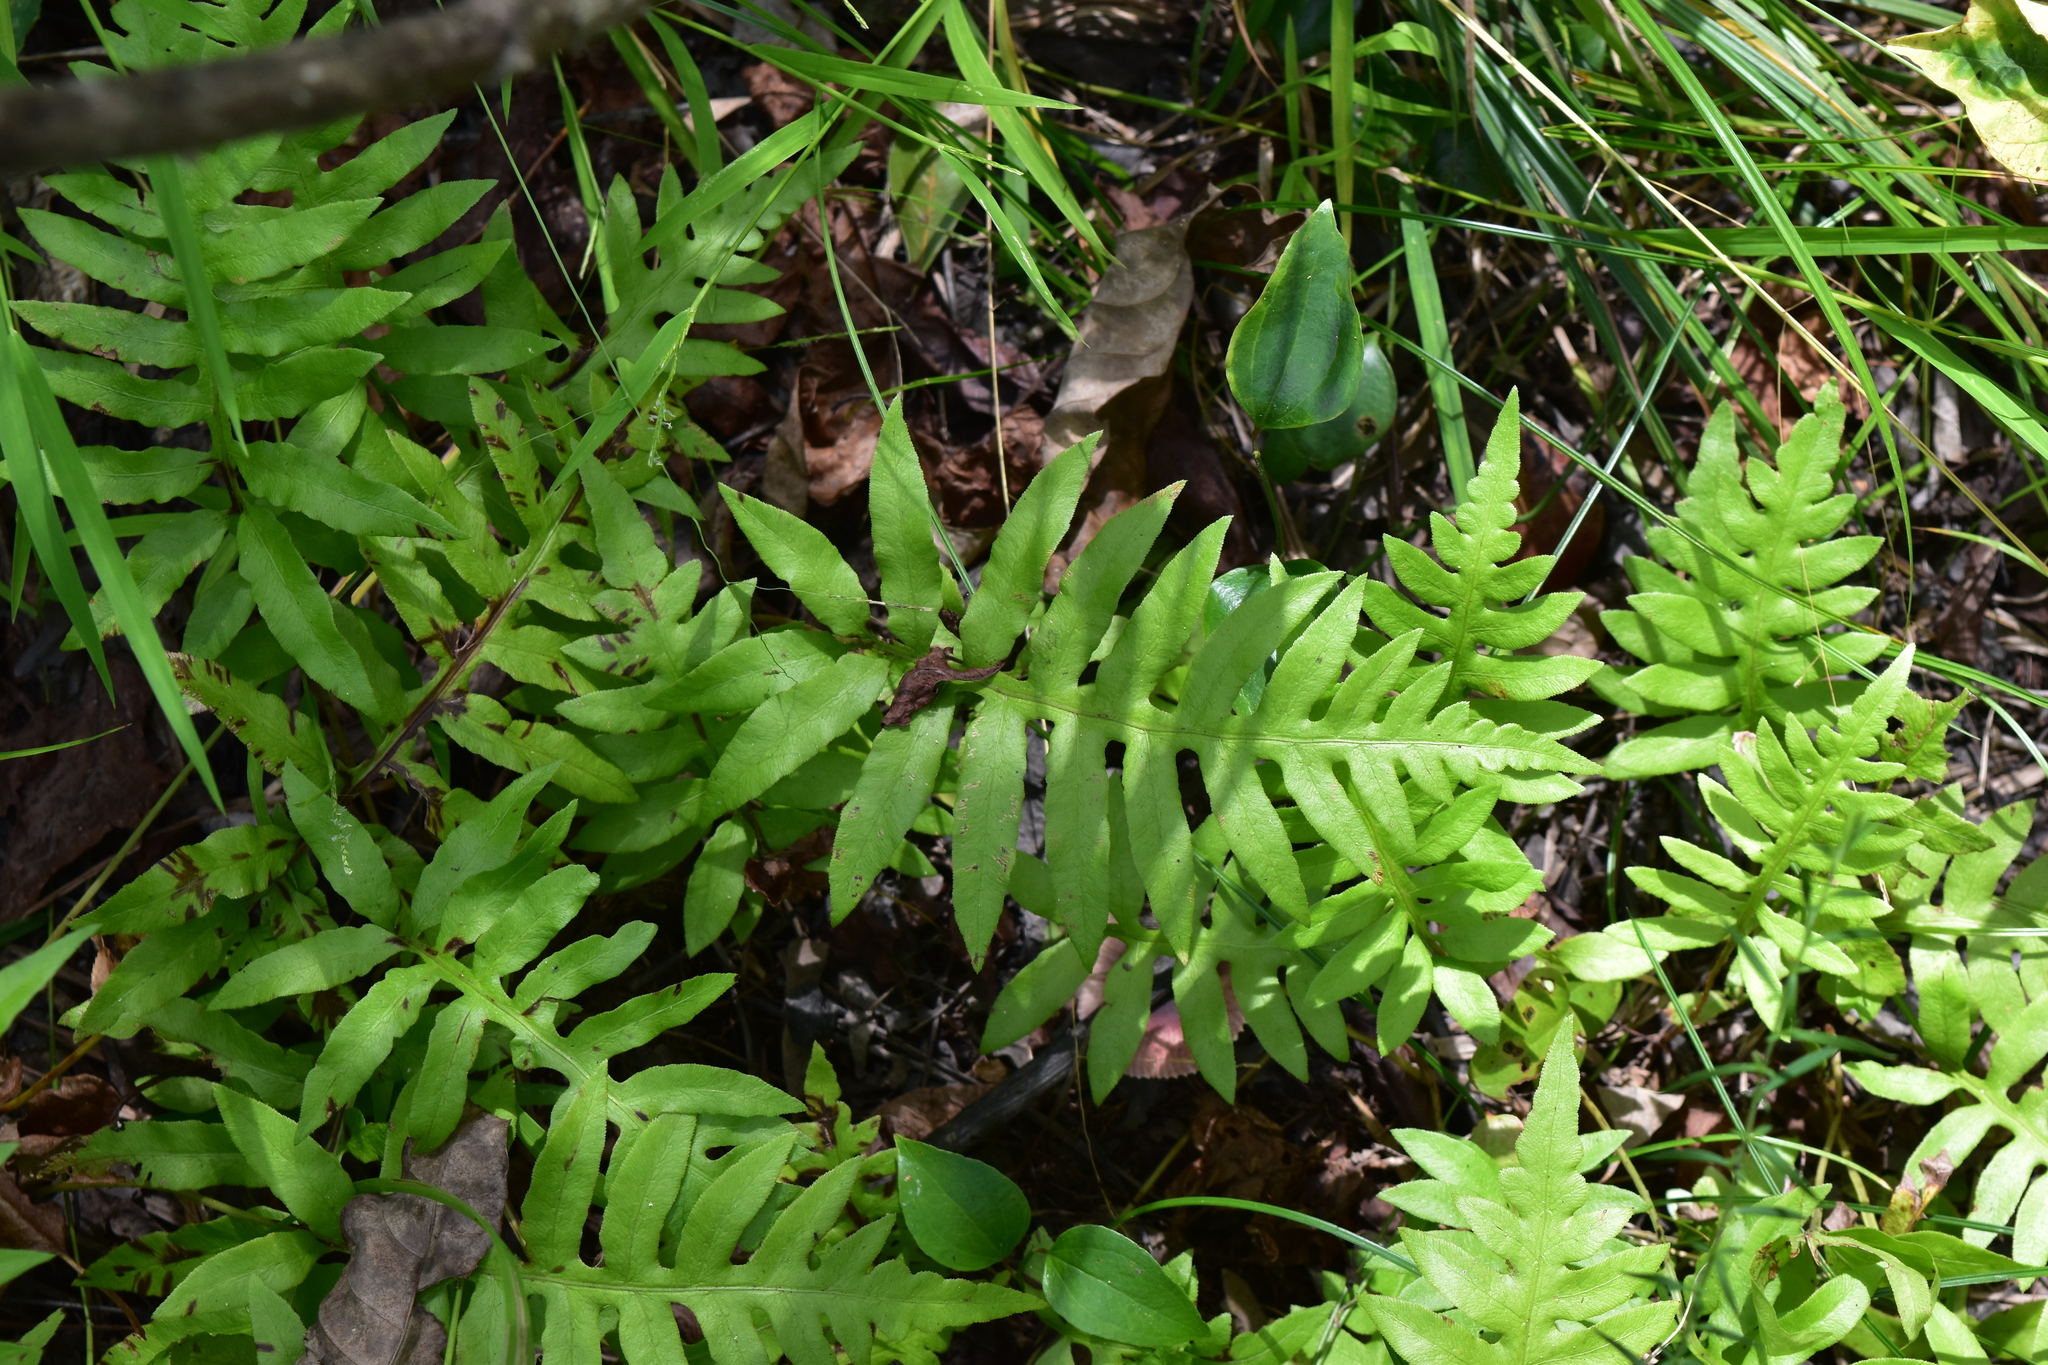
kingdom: Plantae
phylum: Tracheophyta
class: Polypodiopsida
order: Polypodiales
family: Blechnaceae
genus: Lorinseria
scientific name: Lorinseria areolata
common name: Dwarf chain fern
